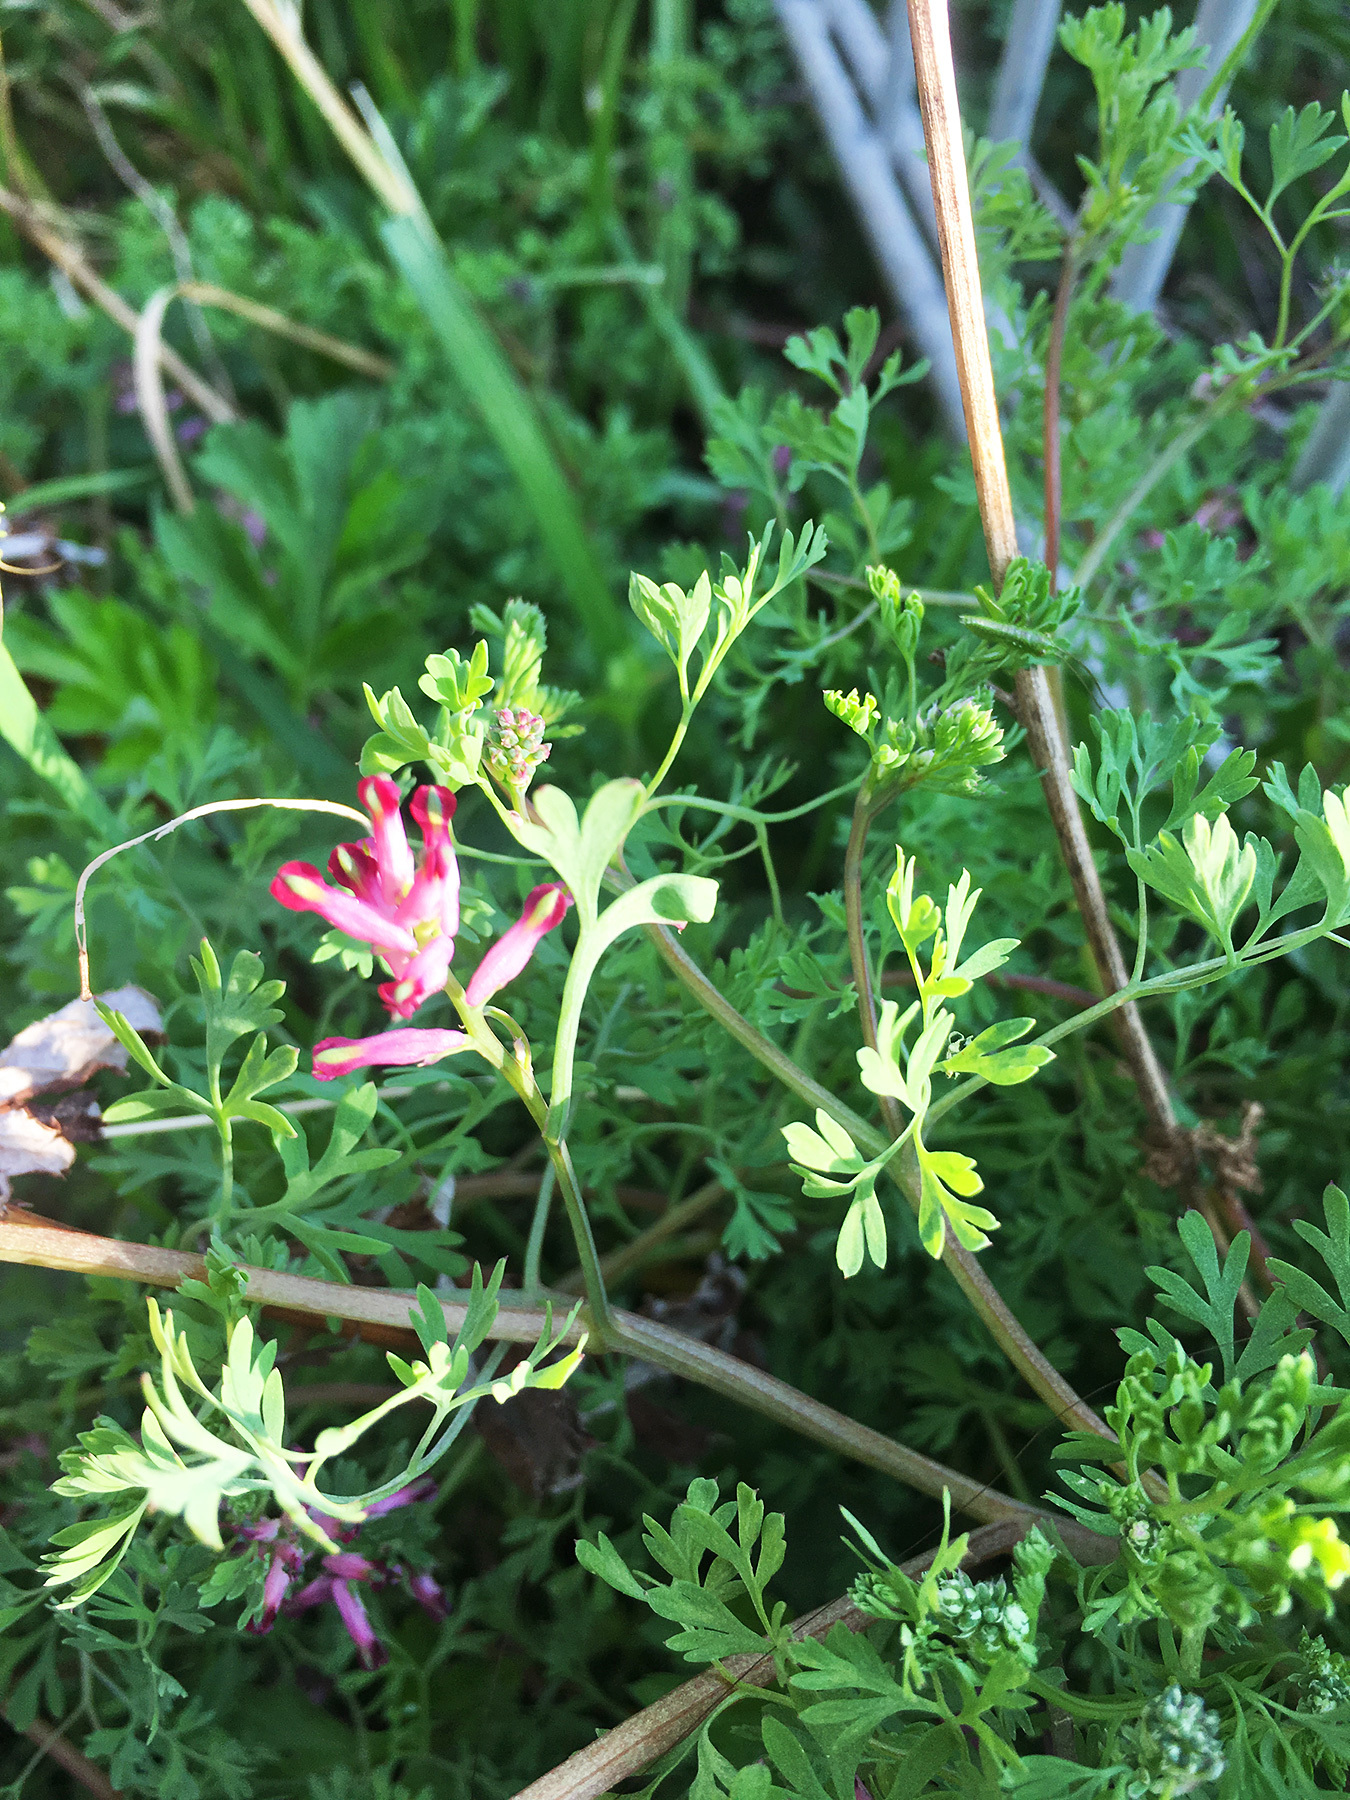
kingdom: Plantae
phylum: Tracheophyta
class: Magnoliopsida
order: Ranunculales
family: Papaveraceae
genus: Fumaria
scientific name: Fumaria officinalis
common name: Common fumitory
